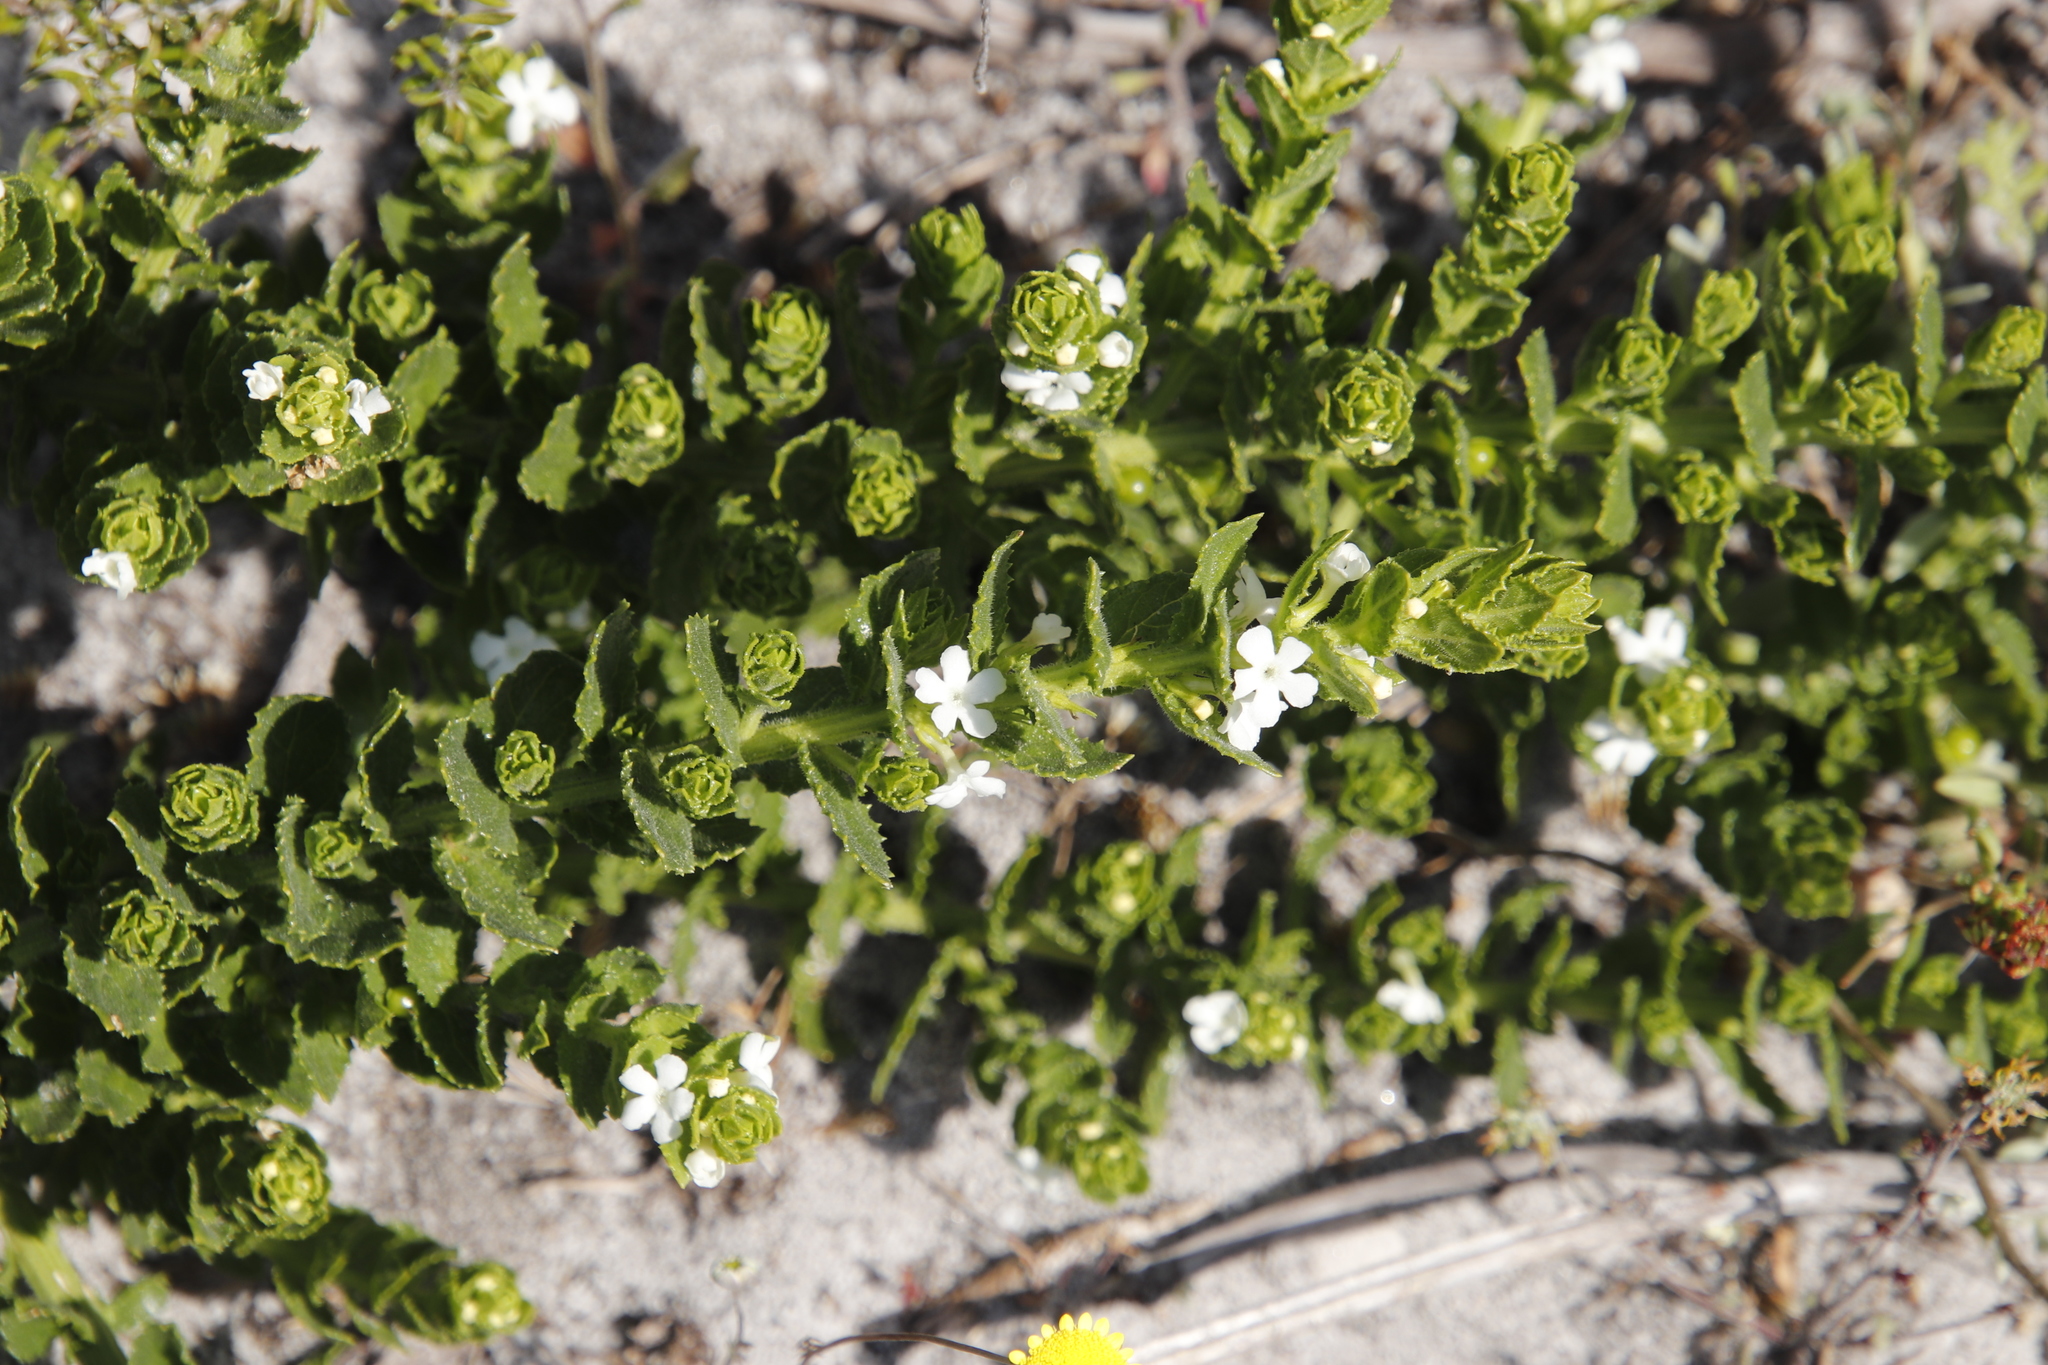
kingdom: Plantae
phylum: Tracheophyta
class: Magnoliopsida
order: Lamiales
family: Scrophulariaceae
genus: Oftia
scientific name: Oftia africana
